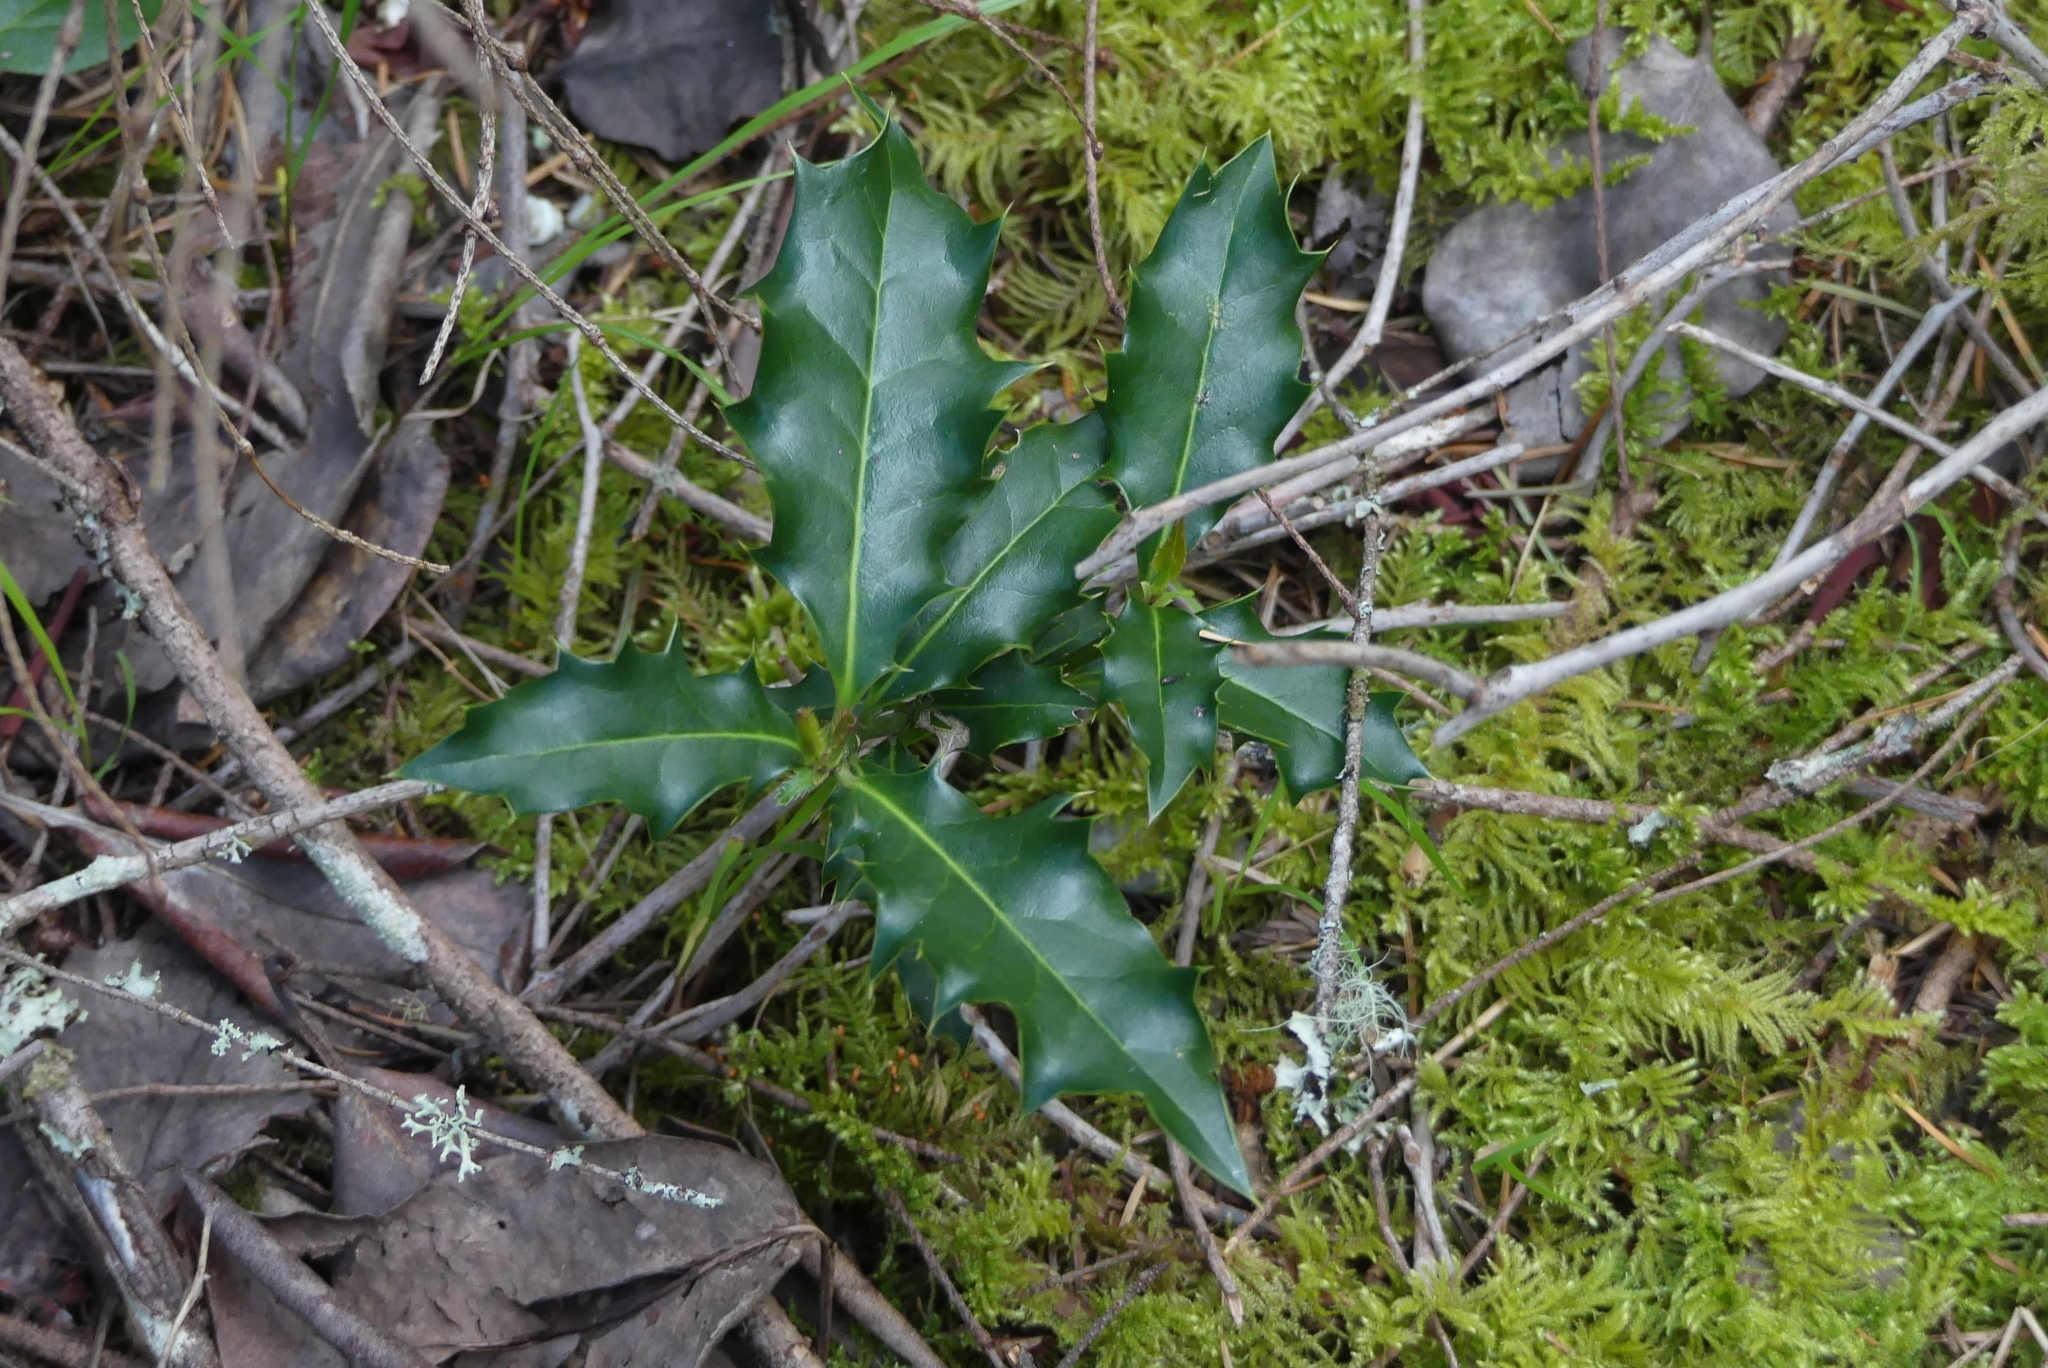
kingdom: Plantae
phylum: Tracheophyta
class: Magnoliopsida
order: Aquifoliales
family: Aquifoliaceae
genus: Ilex
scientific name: Ilex aquifolium
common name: English holly
